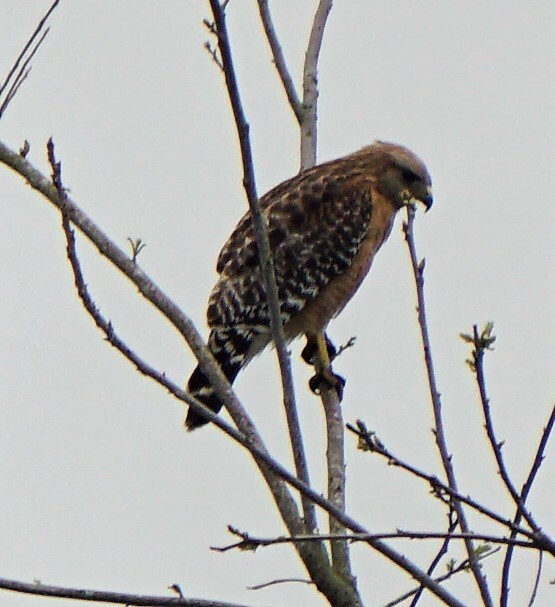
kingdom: Animalia
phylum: Chordata
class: Aves
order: Accipitriformes
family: Accipitridae
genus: Buteo
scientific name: Buteo lineatus
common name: Red-shouldered hawk
